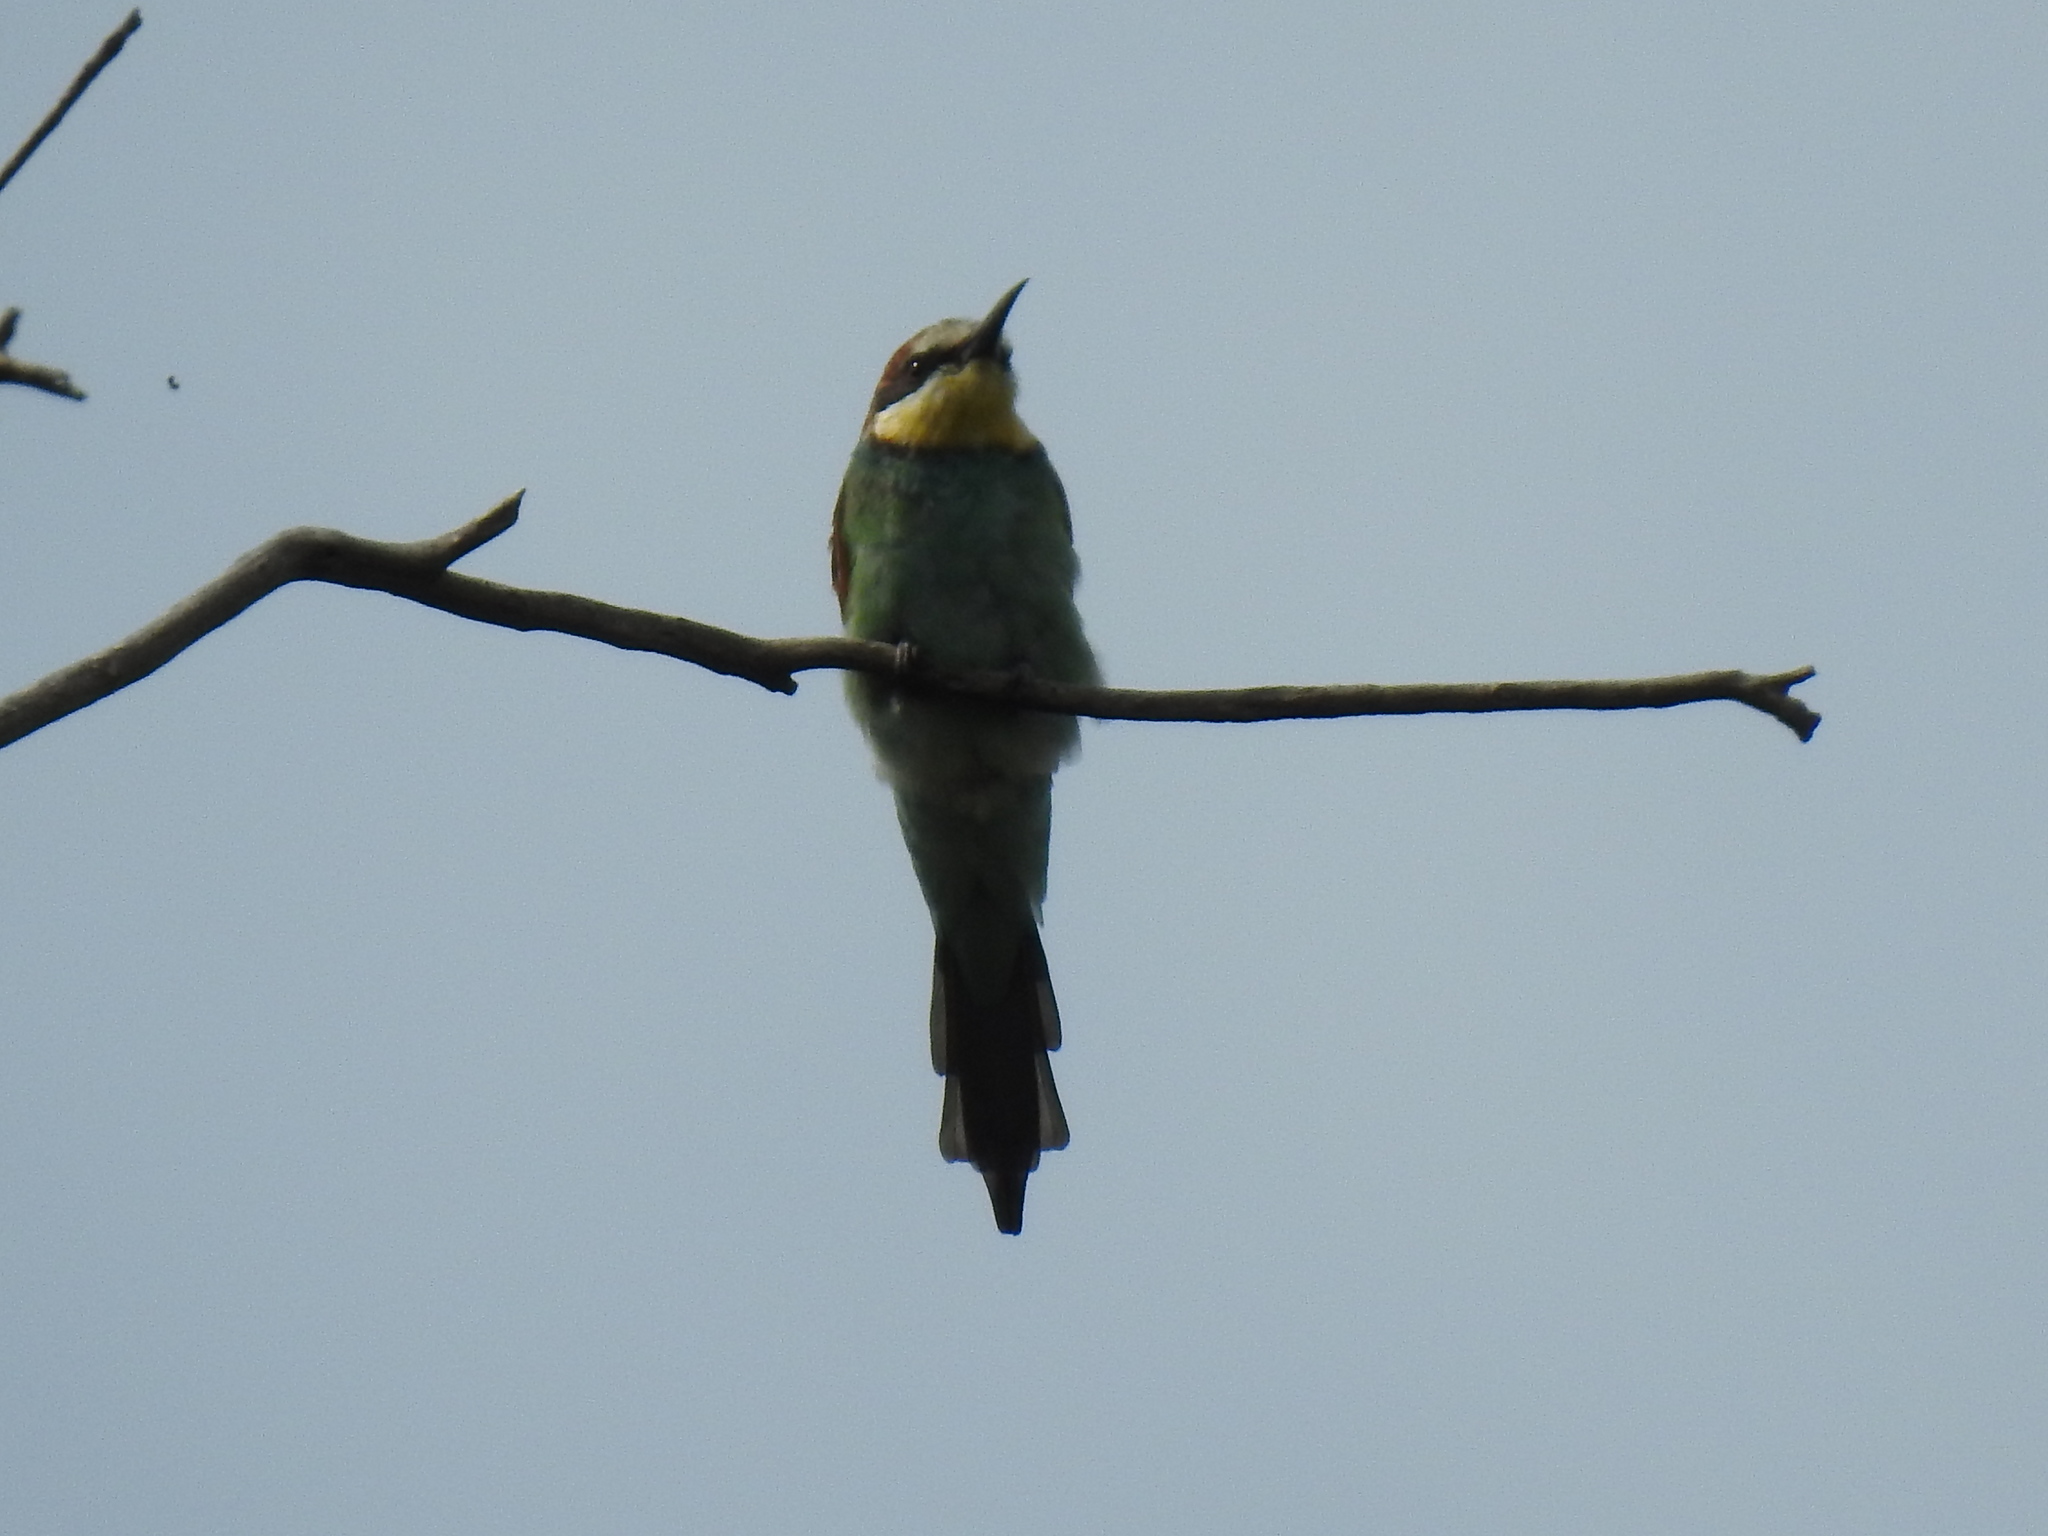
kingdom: Animalia
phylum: Chordata
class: Aves
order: Coraciiformes
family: Meropidae
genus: Merops
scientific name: Merops apiaster
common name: European bee-eater
